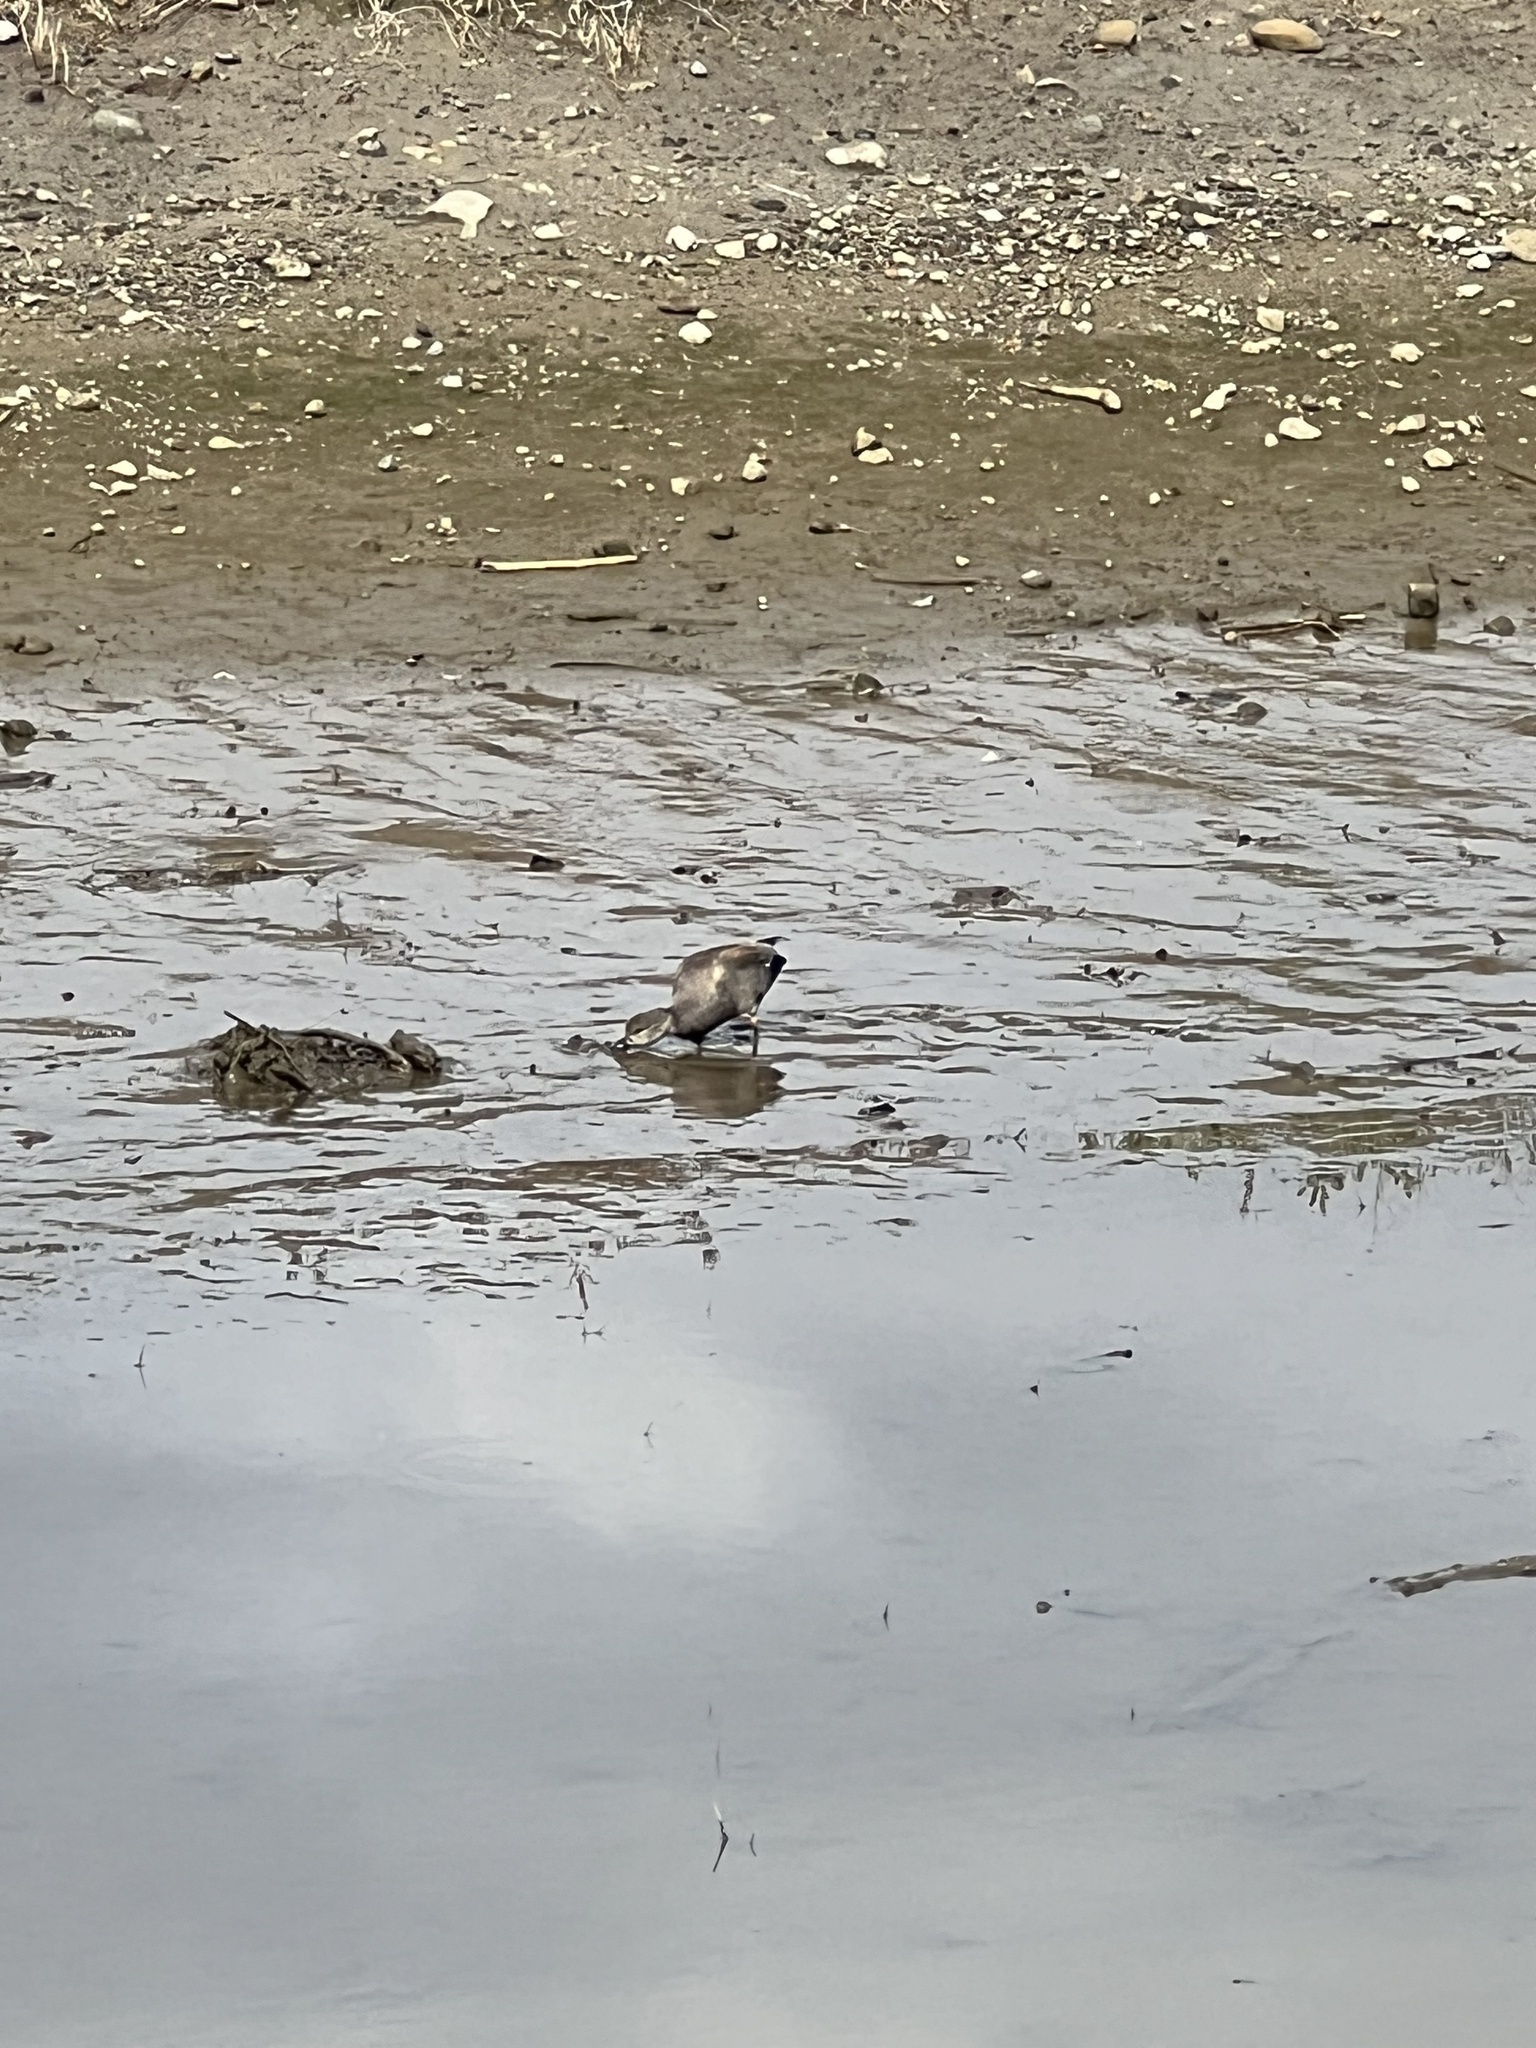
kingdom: Animalia
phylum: Chordata
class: Aves
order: Anseriformes
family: Anatidae
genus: Mareca
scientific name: Mareca strepera
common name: Gadwall
